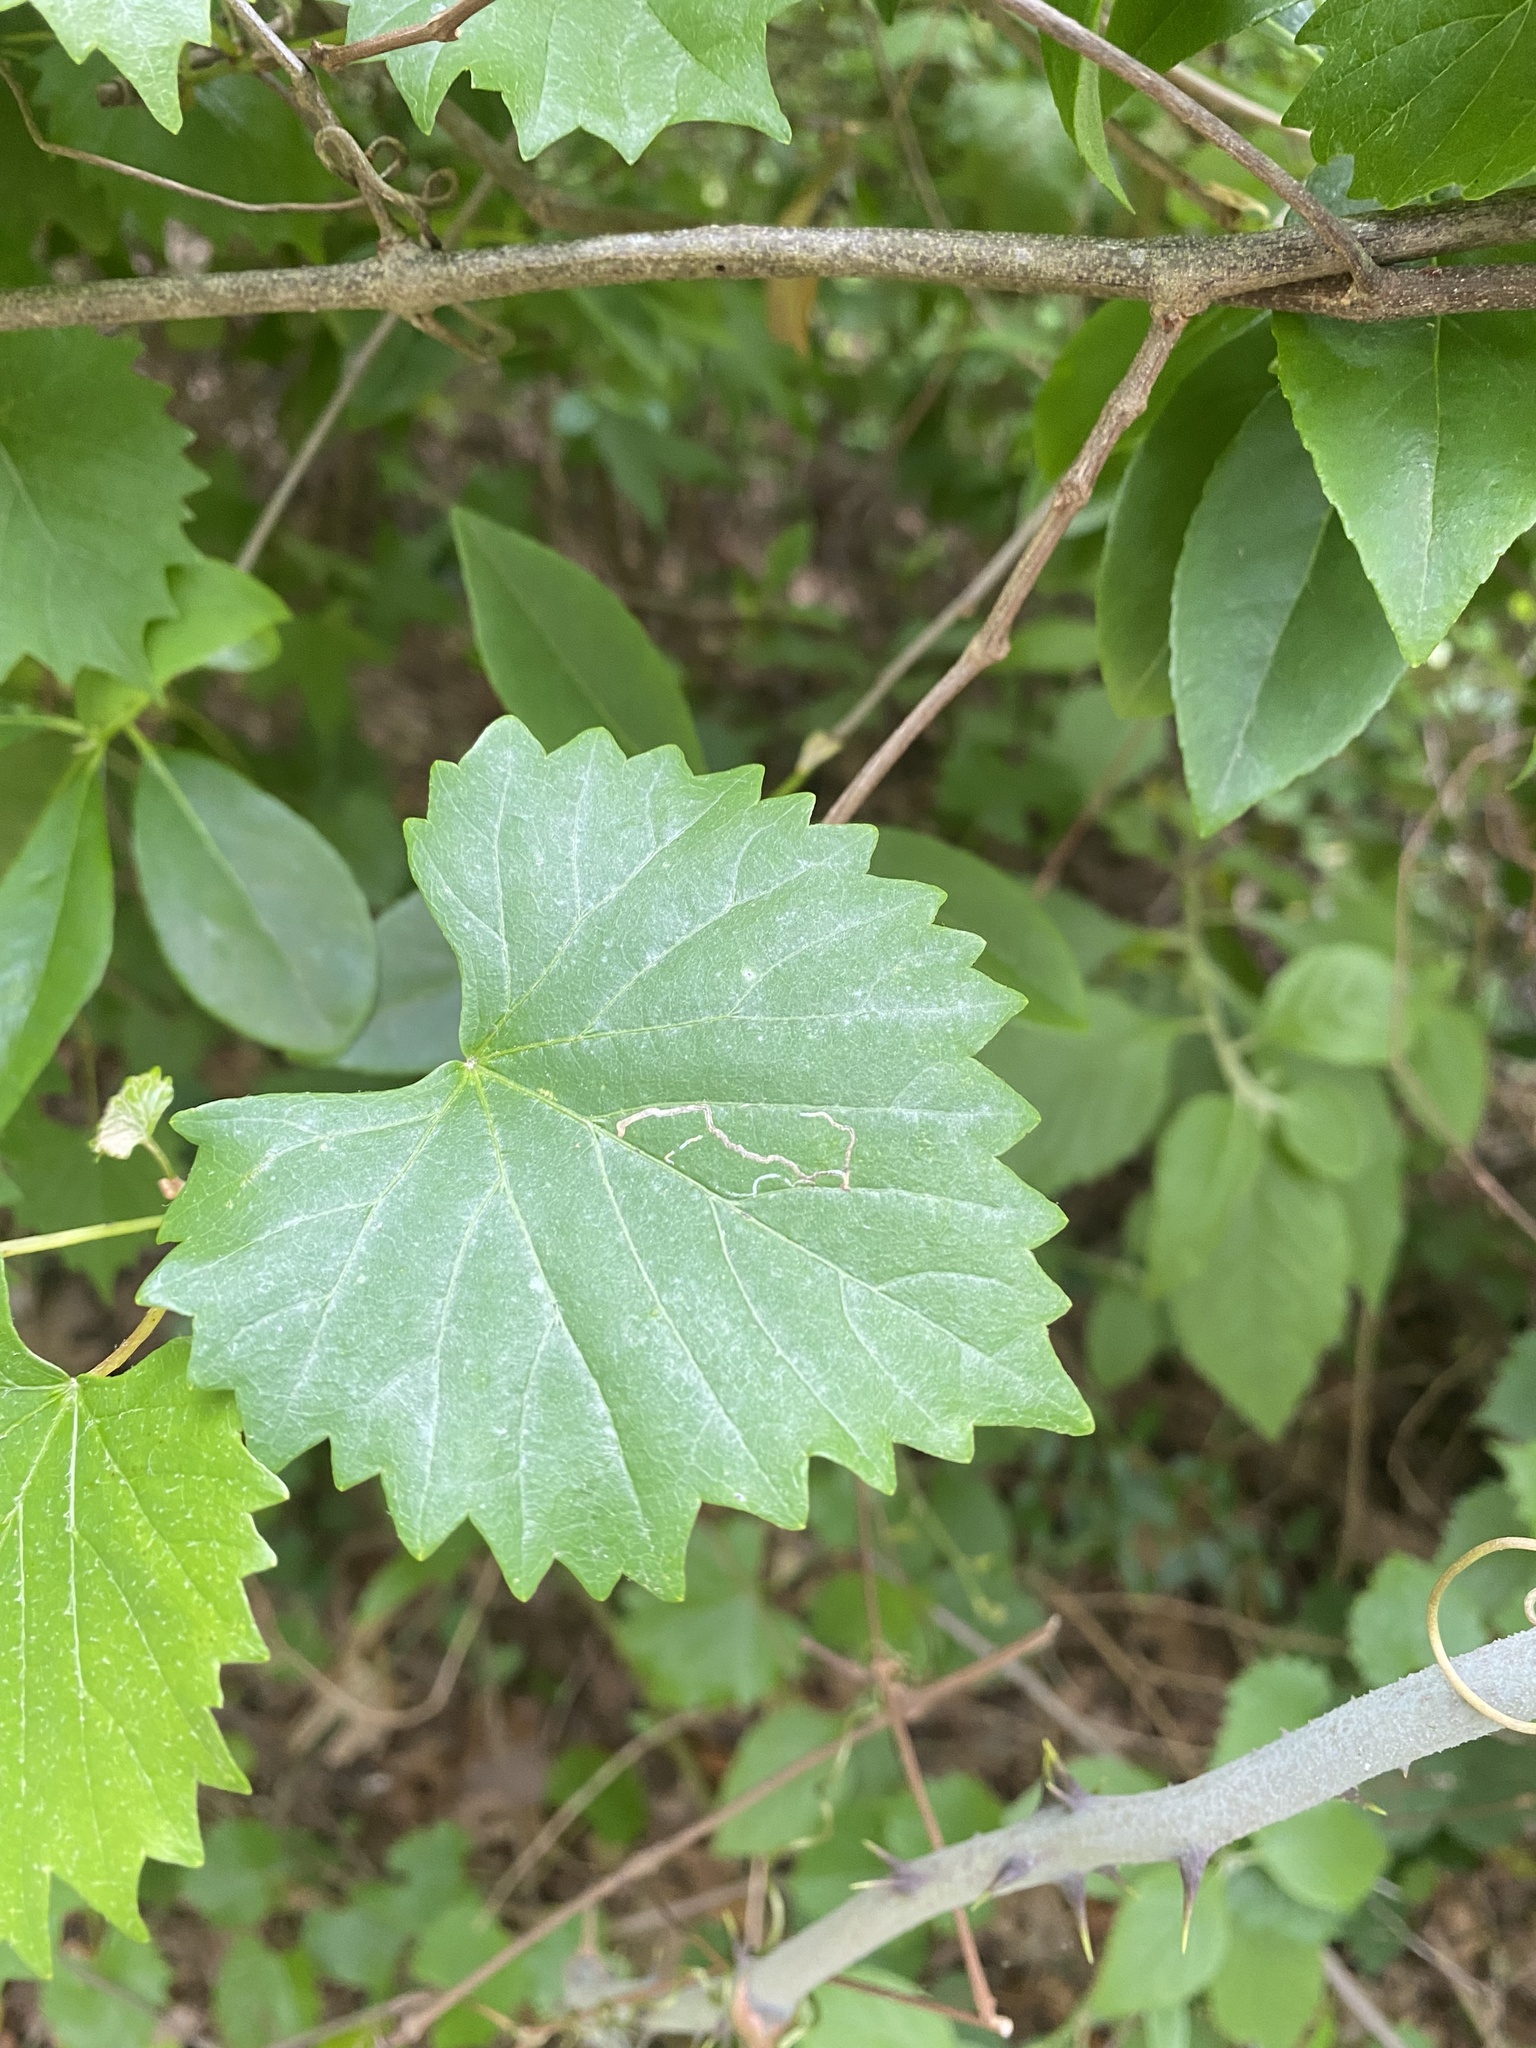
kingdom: Plantae
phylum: Tracheophyta
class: Magnoliopsida
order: Vitales
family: Vitaceae
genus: Vitis
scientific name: Vitis rotundifolia
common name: Muscadine grape
